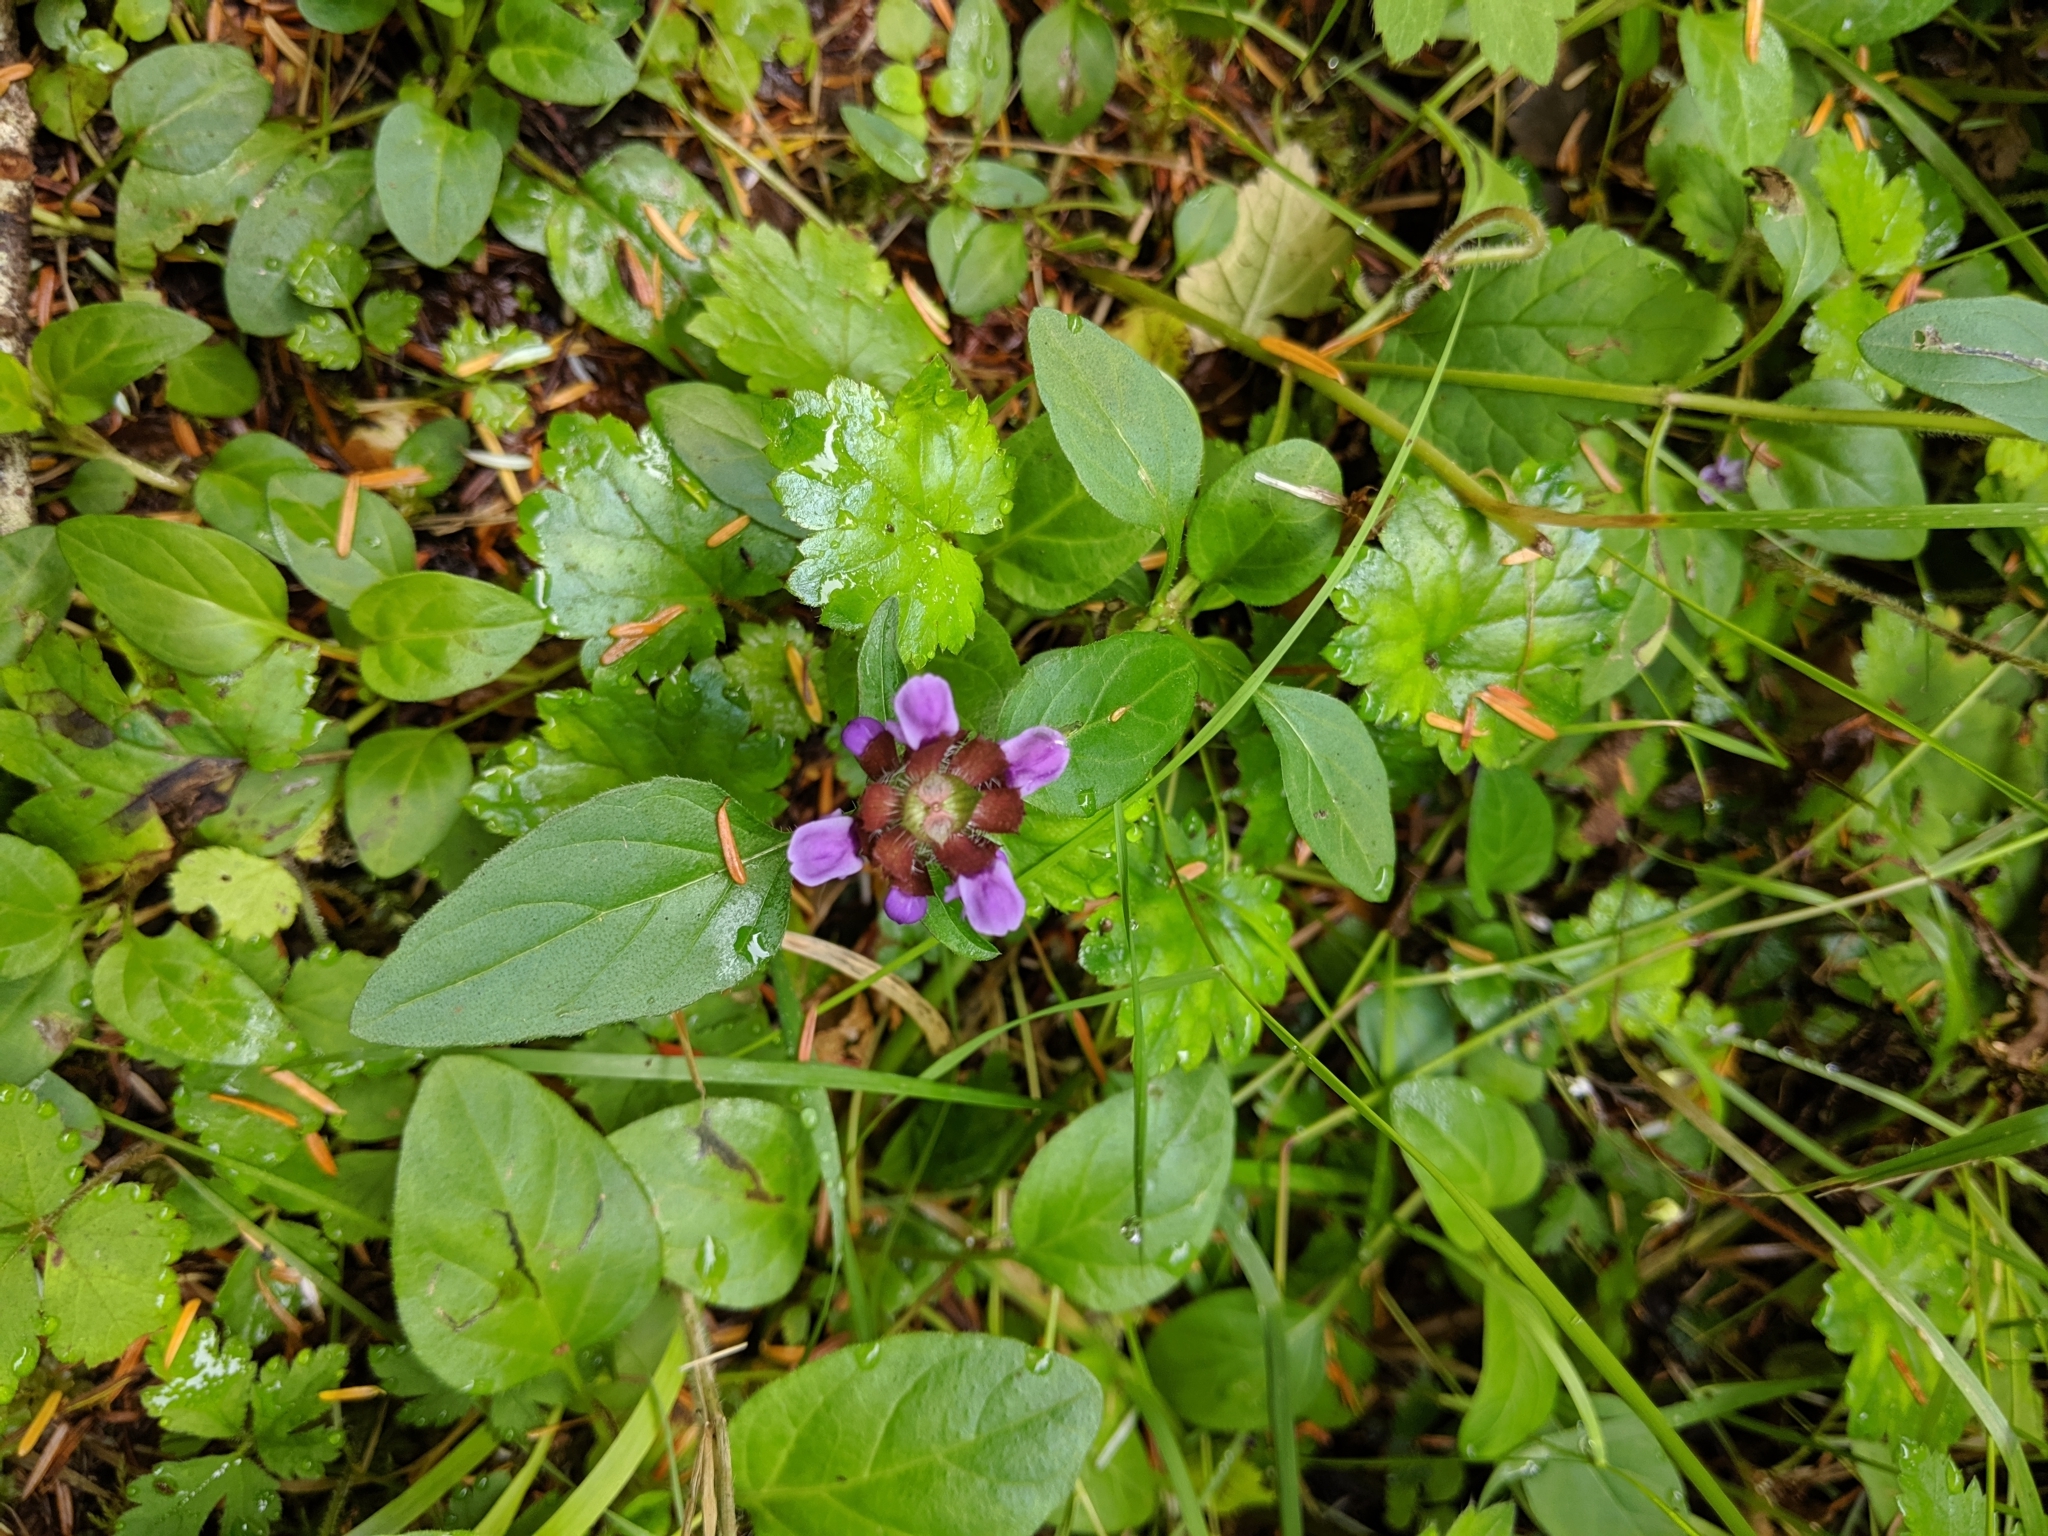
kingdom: Plantae
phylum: Tracheophyta
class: Magnoliopsida
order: Lamiales
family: Lamiaceae
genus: Prunella
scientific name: Prunella vulgaris
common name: Heal-all
